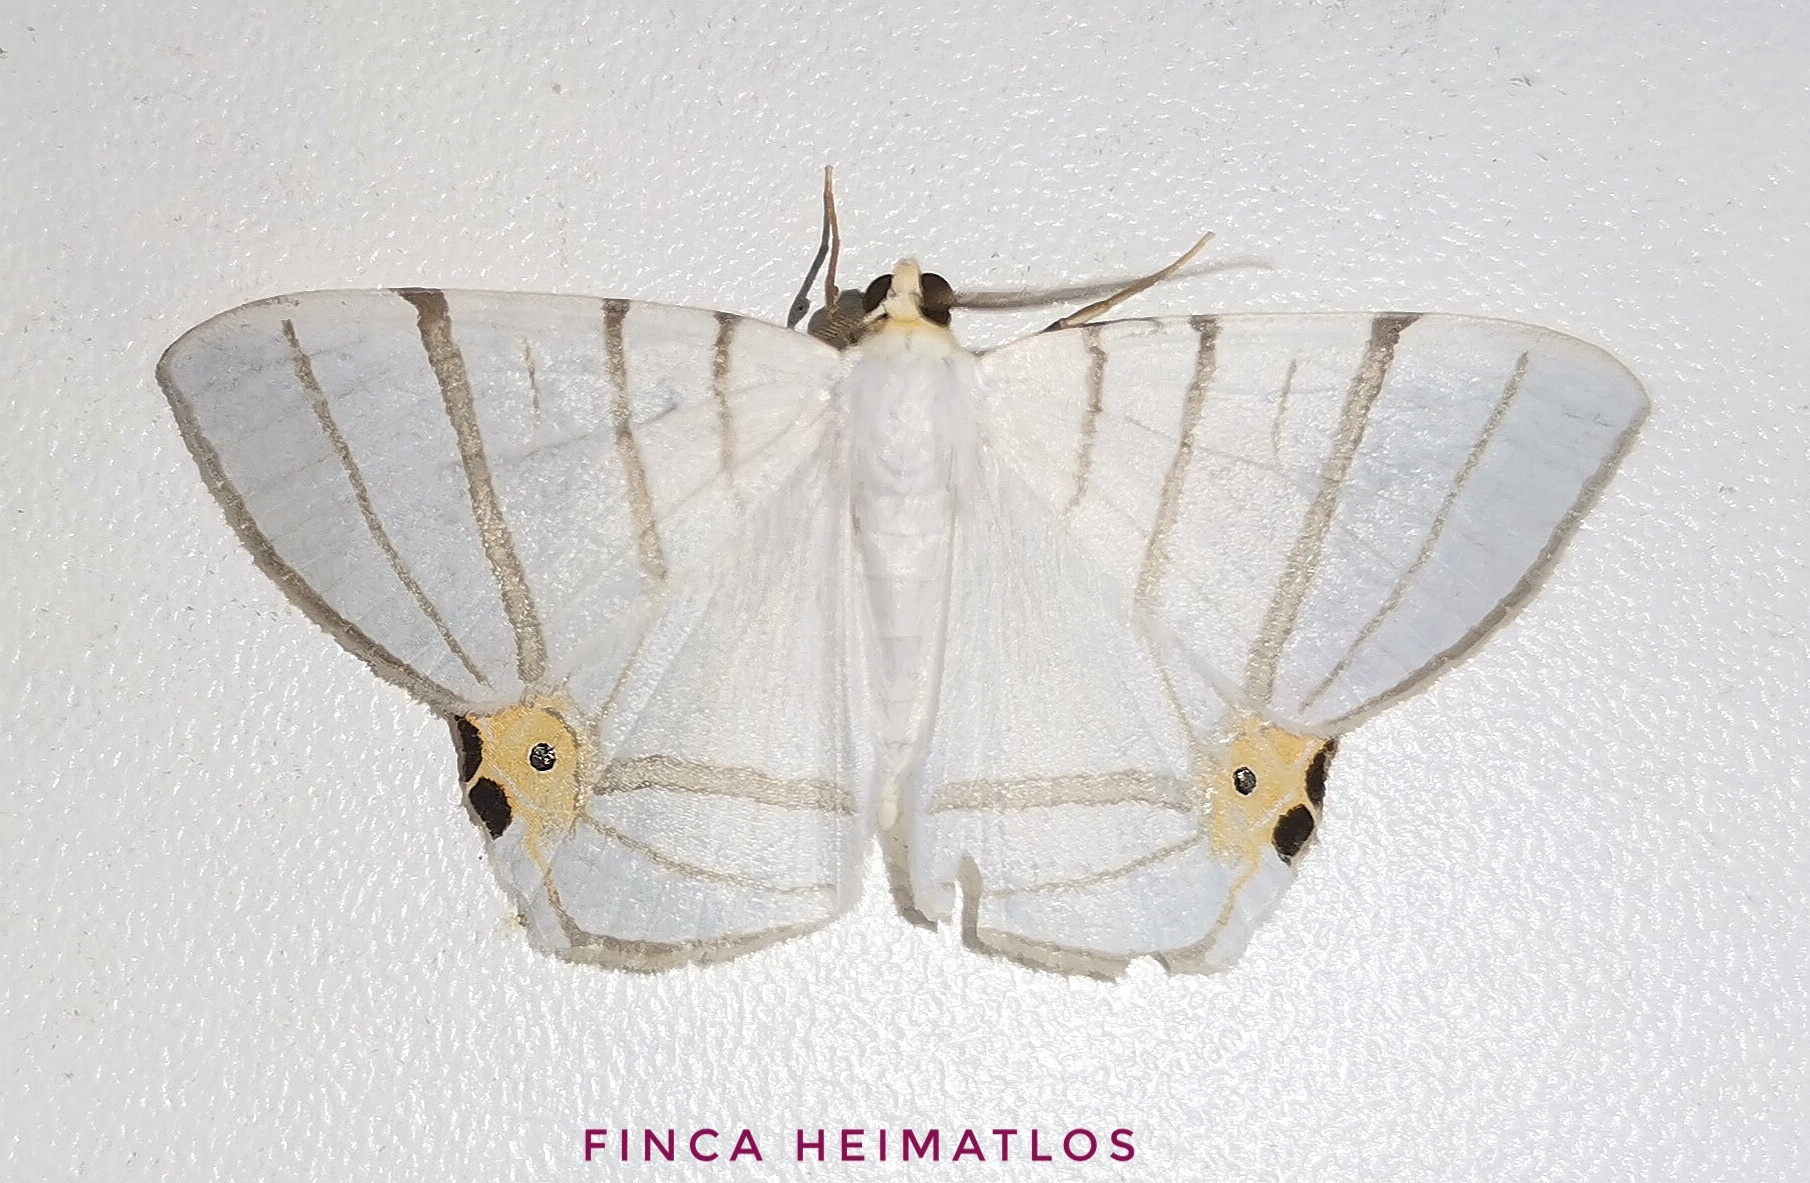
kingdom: Animalia
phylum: Arthropoda
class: Insecta
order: Lepidoptera
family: Geometridae
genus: Opisthoxia
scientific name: Opisthoxia saturniaria
